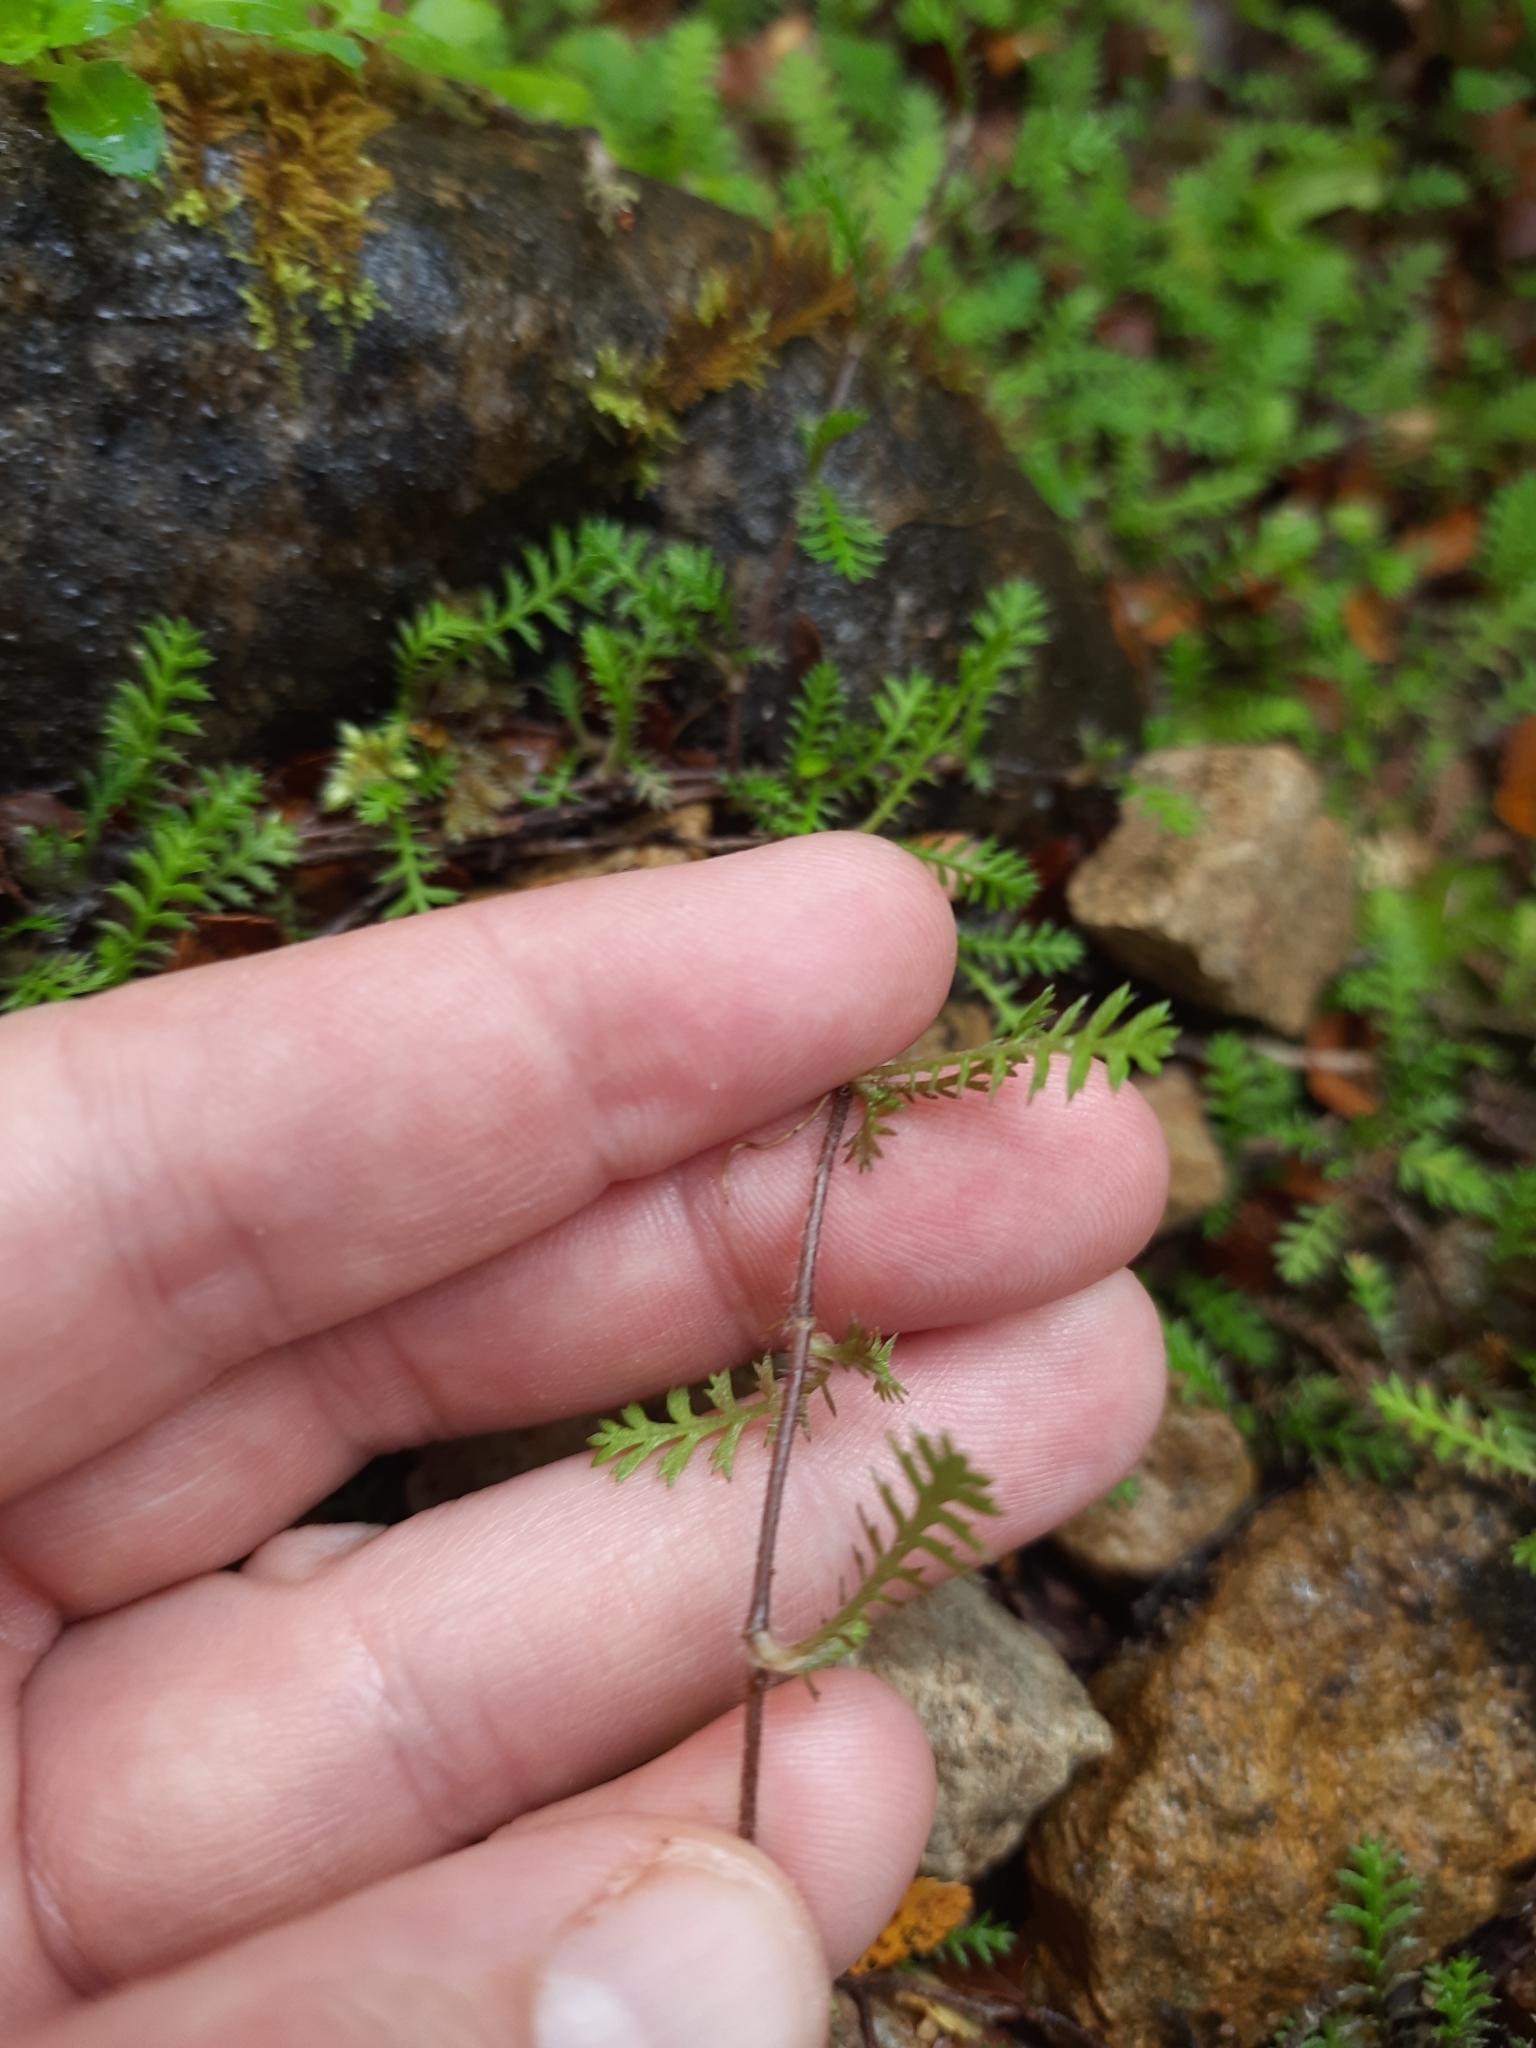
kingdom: Plantae
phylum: Tracheophyta
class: Magnoliopsida
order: Asterales
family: Asteraceae
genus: Leptinella
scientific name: Leptinella squalida
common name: New zealand brass-buttons
